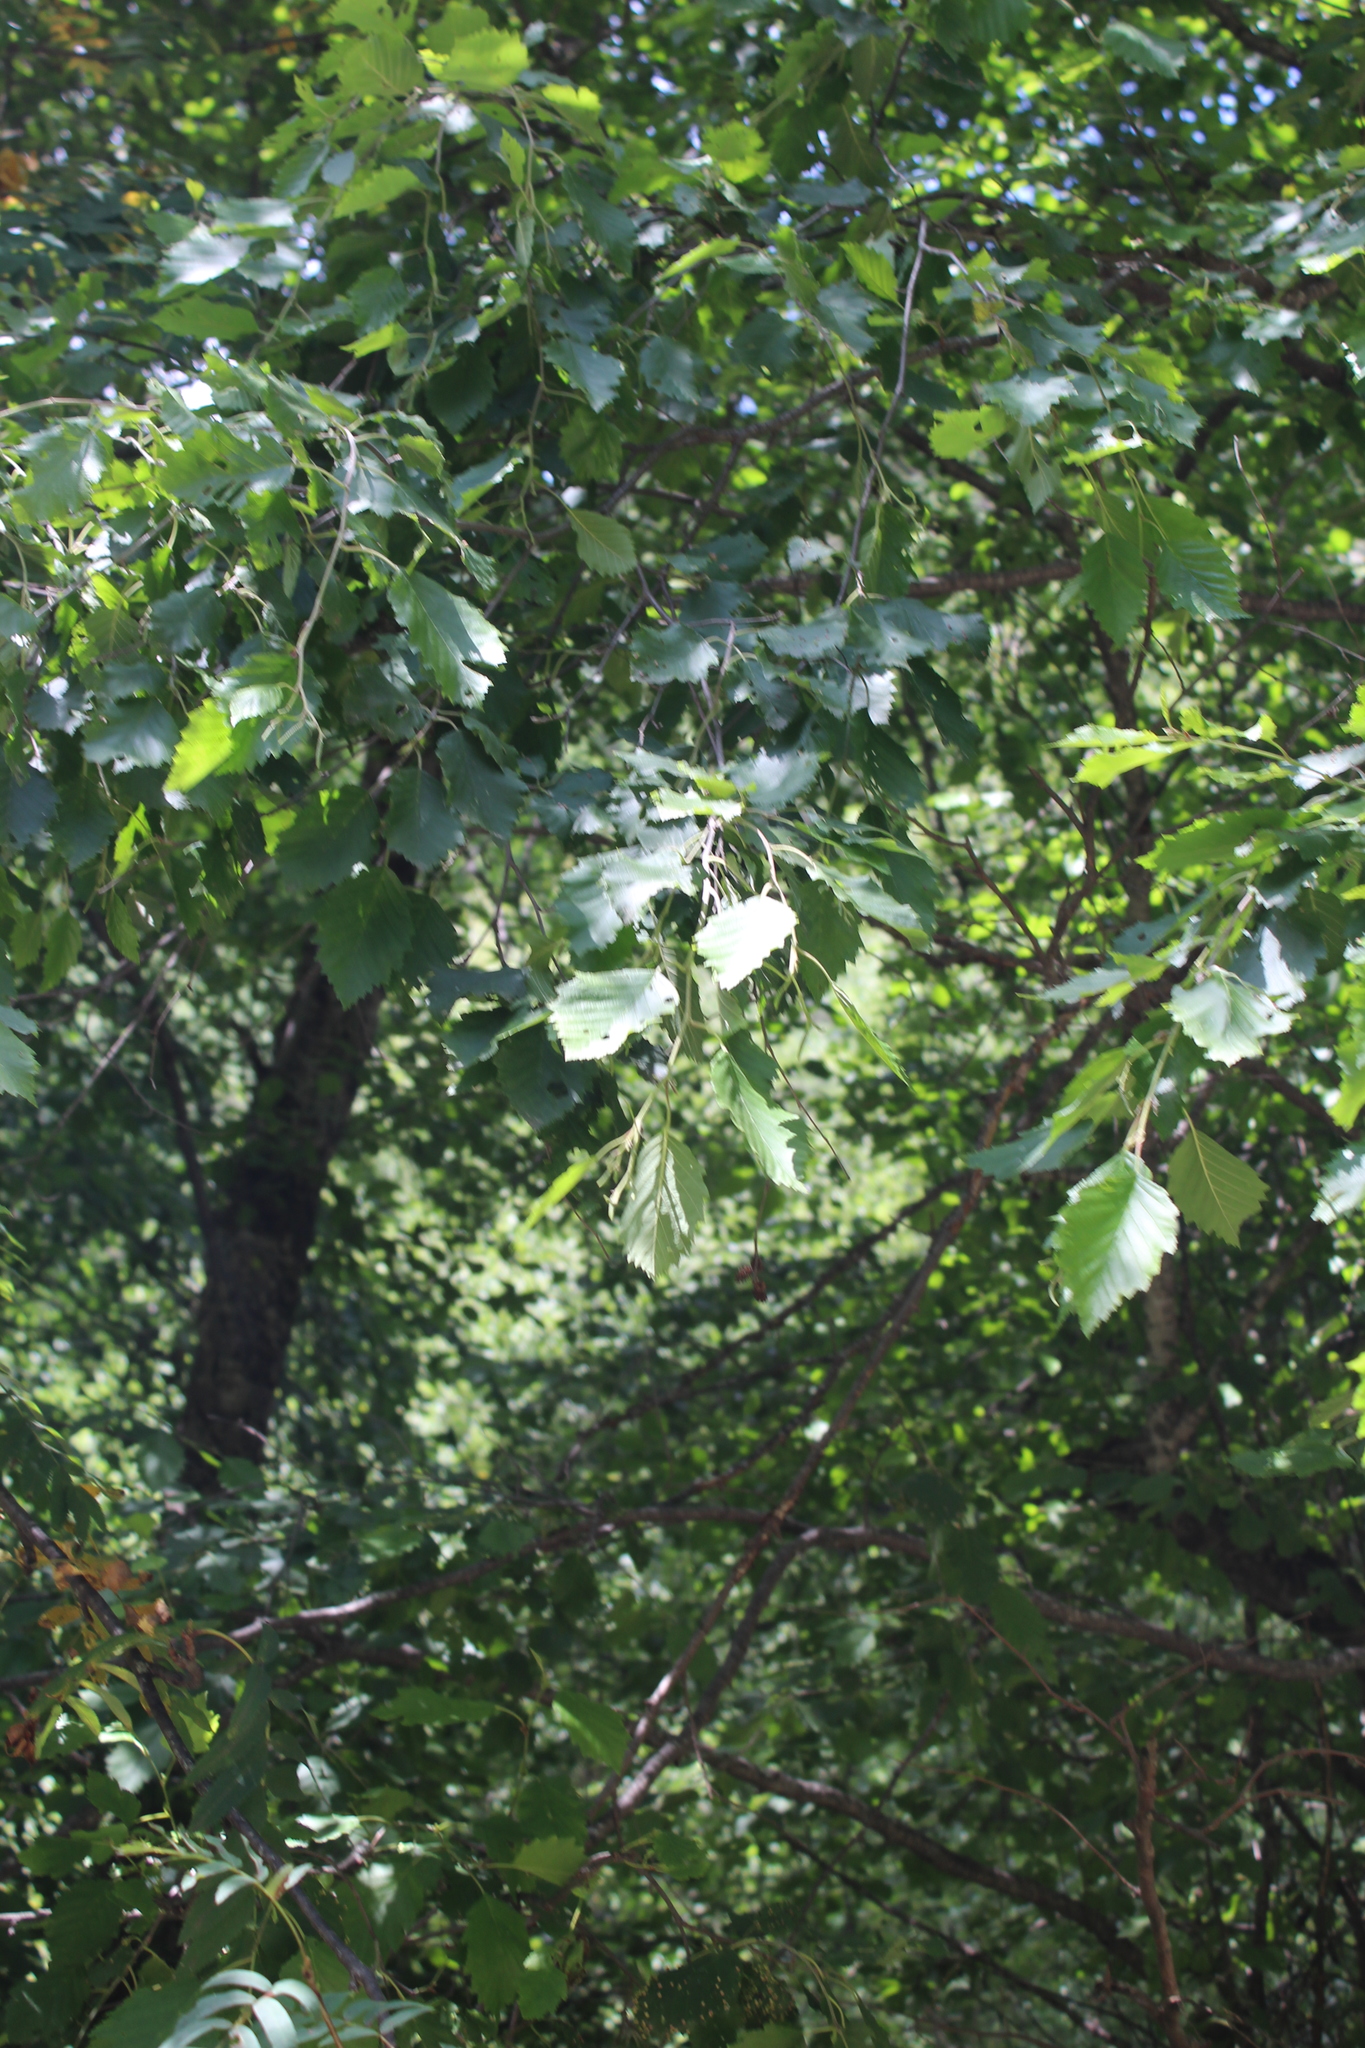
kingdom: Plantae
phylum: Tracheophyta
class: Magnoliopsida
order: Fagales
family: Betulaceae
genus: Alnus
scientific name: Alnus incana
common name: Grey alder
